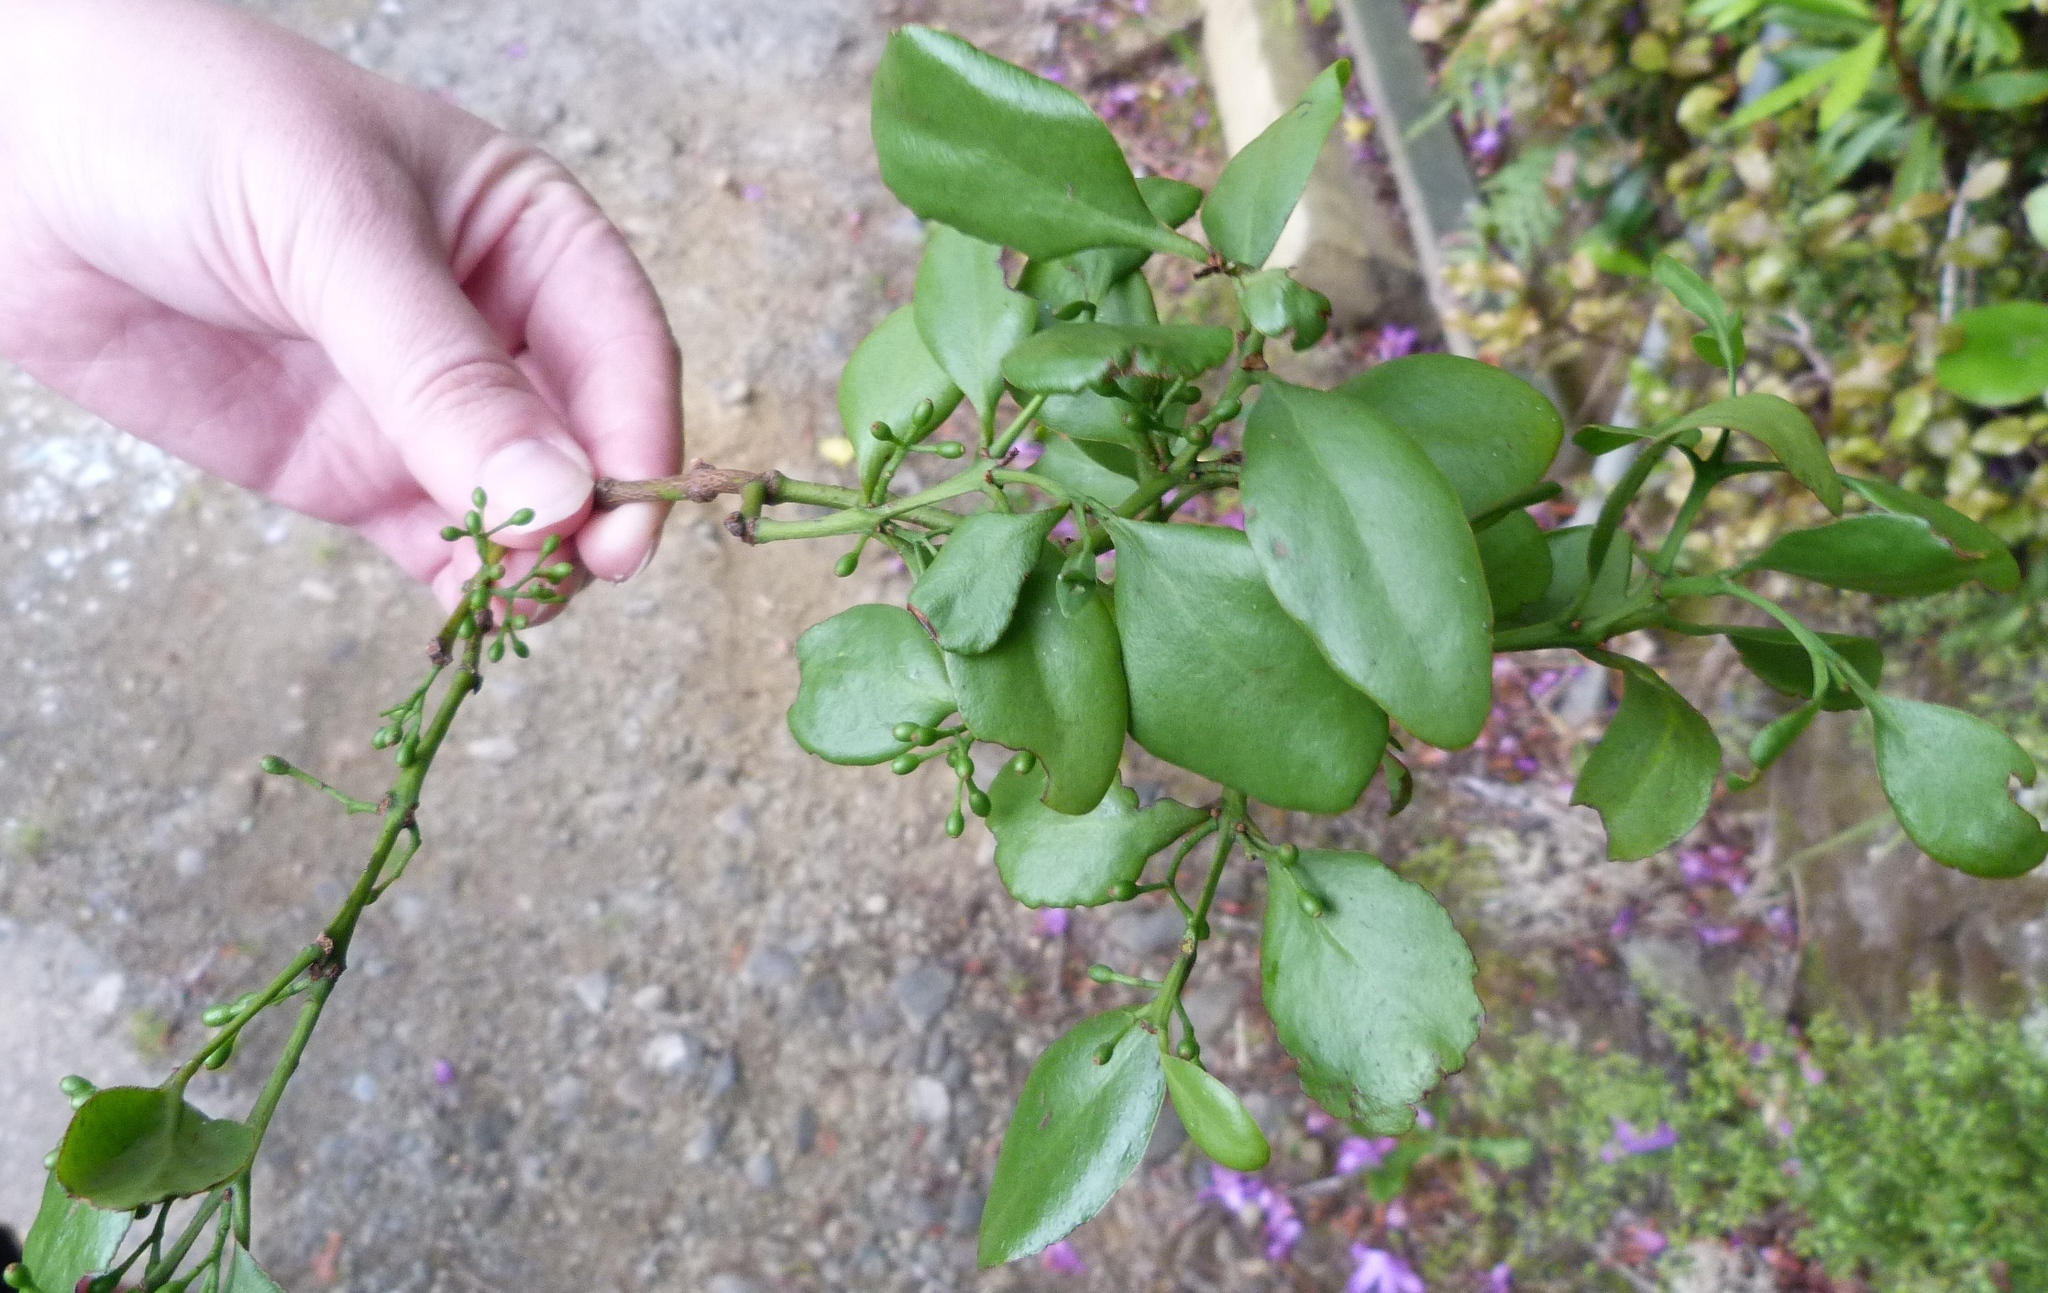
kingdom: Plantae
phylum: Tracheophyta
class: Magnoliopsida
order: Santalales
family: Loranthaceae
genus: Ileostylus
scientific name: Ileostylus micranthus
